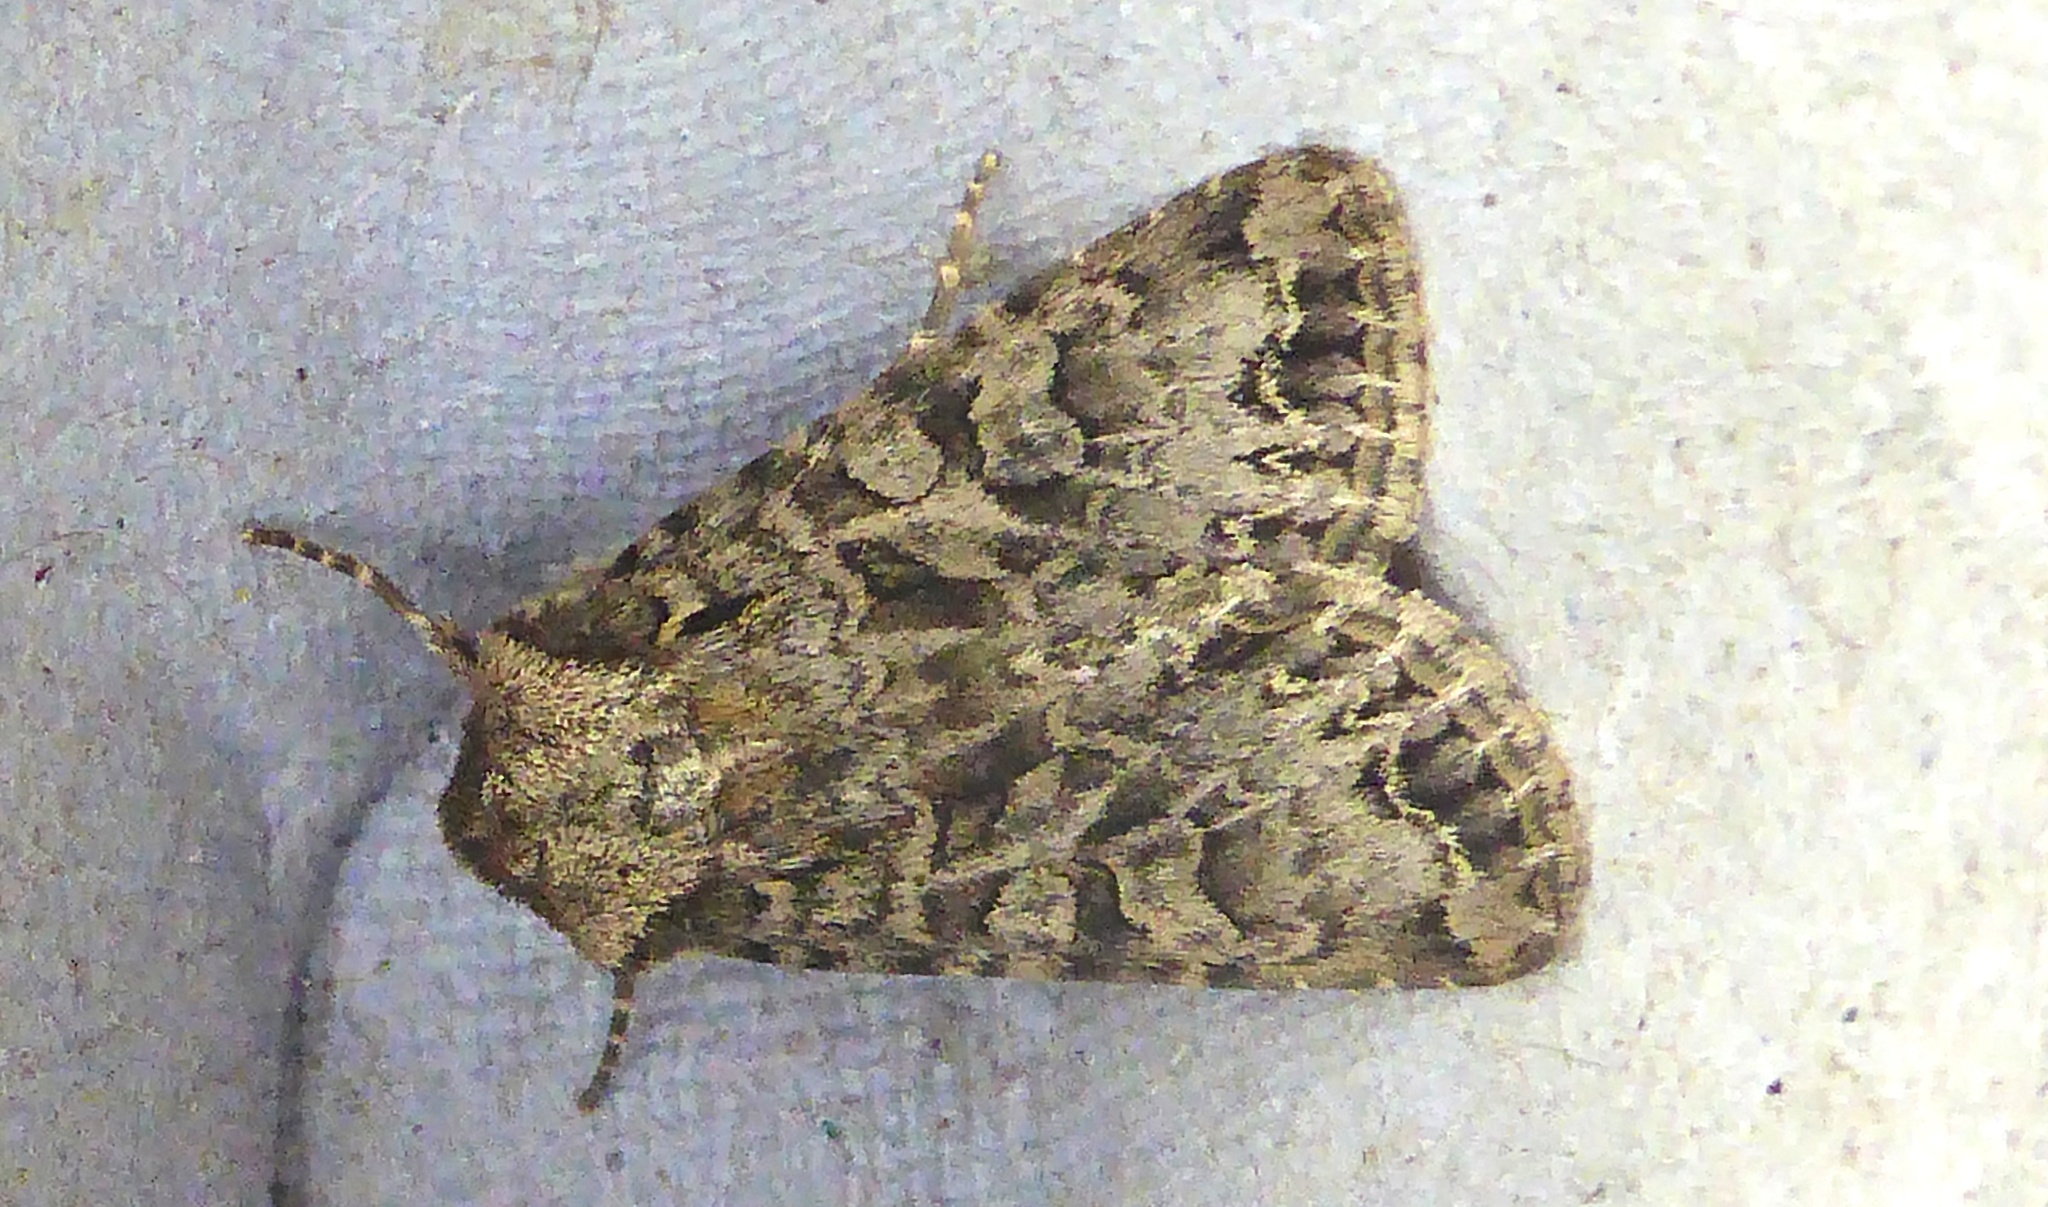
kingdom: Animalia
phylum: Arthropoda
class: Insecta
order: Lepidoptera
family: Noctuidae
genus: Hada
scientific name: Hada plebeja
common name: Shears
